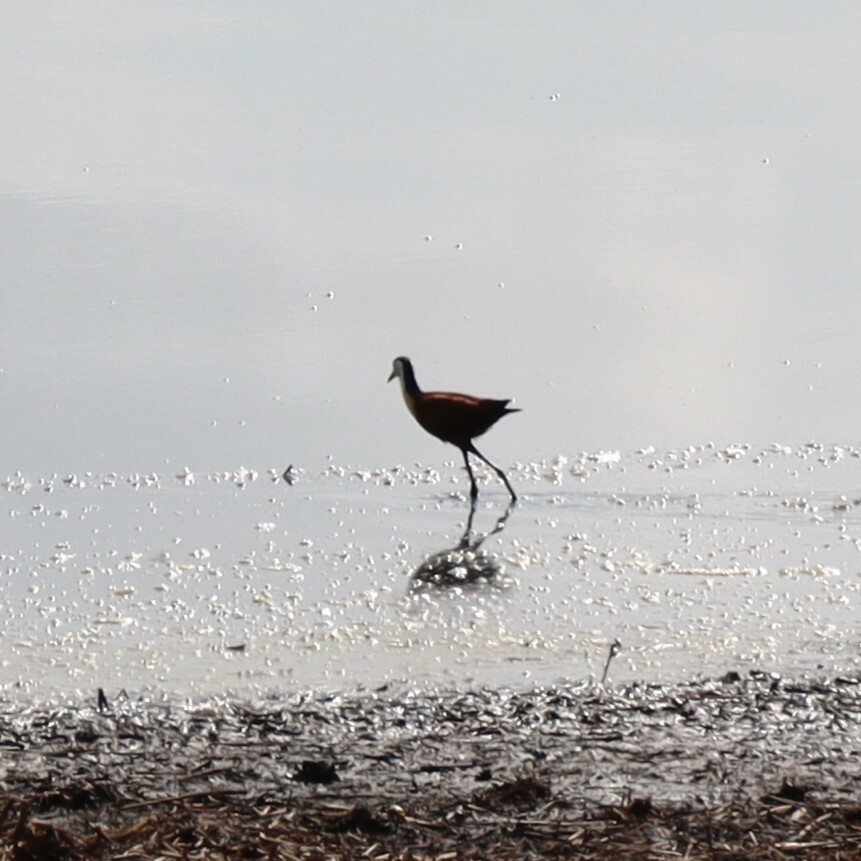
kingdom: Animalia
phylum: Chordata
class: Aves
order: Charadriiformes
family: Jacanidae
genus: Actophilornis
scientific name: Actophilornis africanus
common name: African jacana
